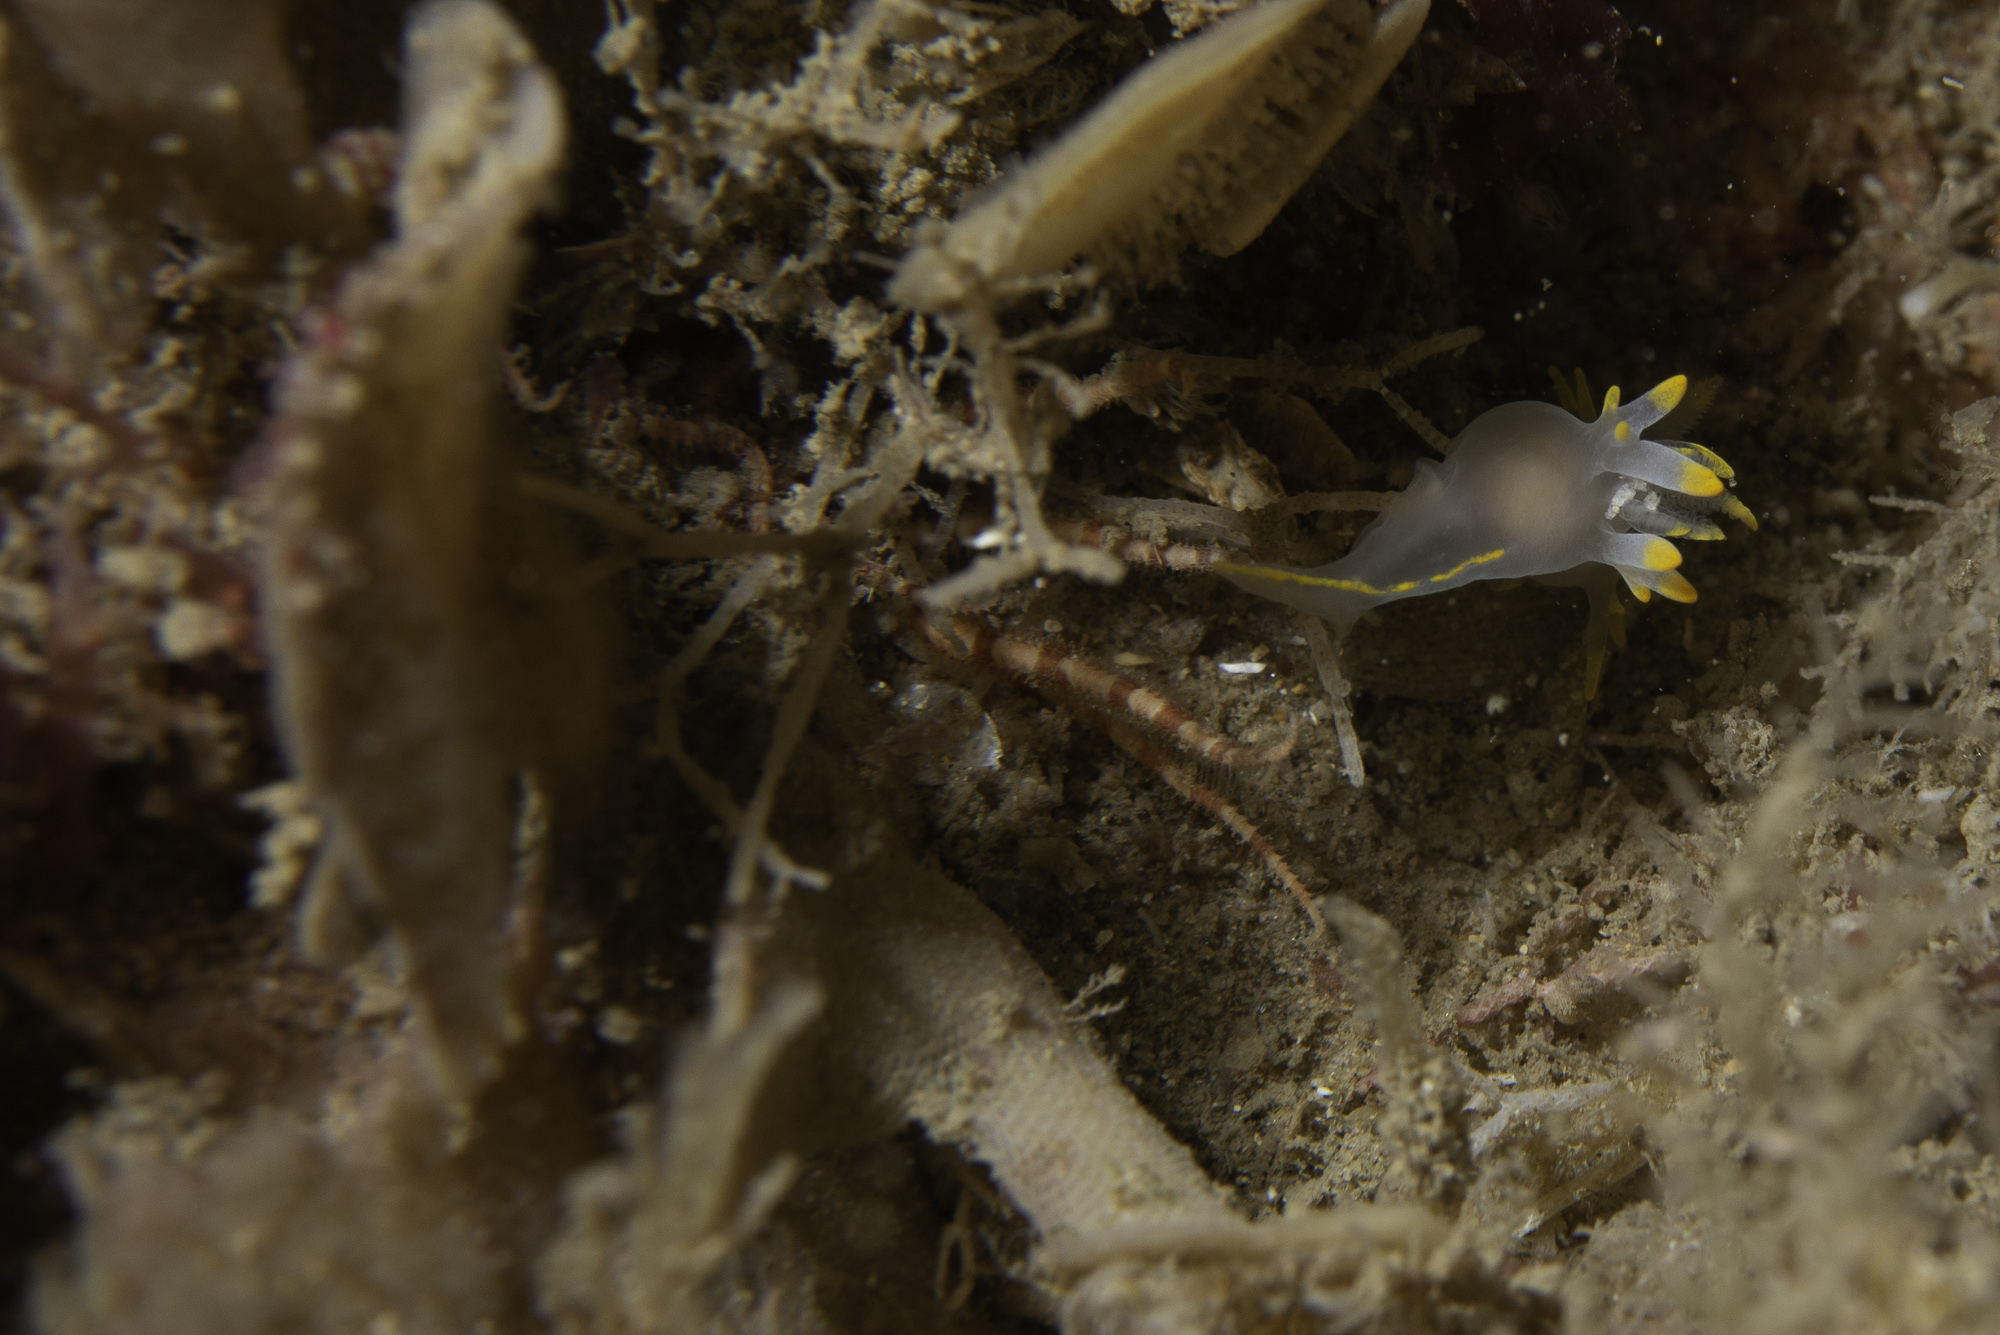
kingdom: Animalia
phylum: Echinodermata
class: Ophiuroidea
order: Amphilepidida
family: Ophiactidae
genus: Ophiactis
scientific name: Ophiactis balli
